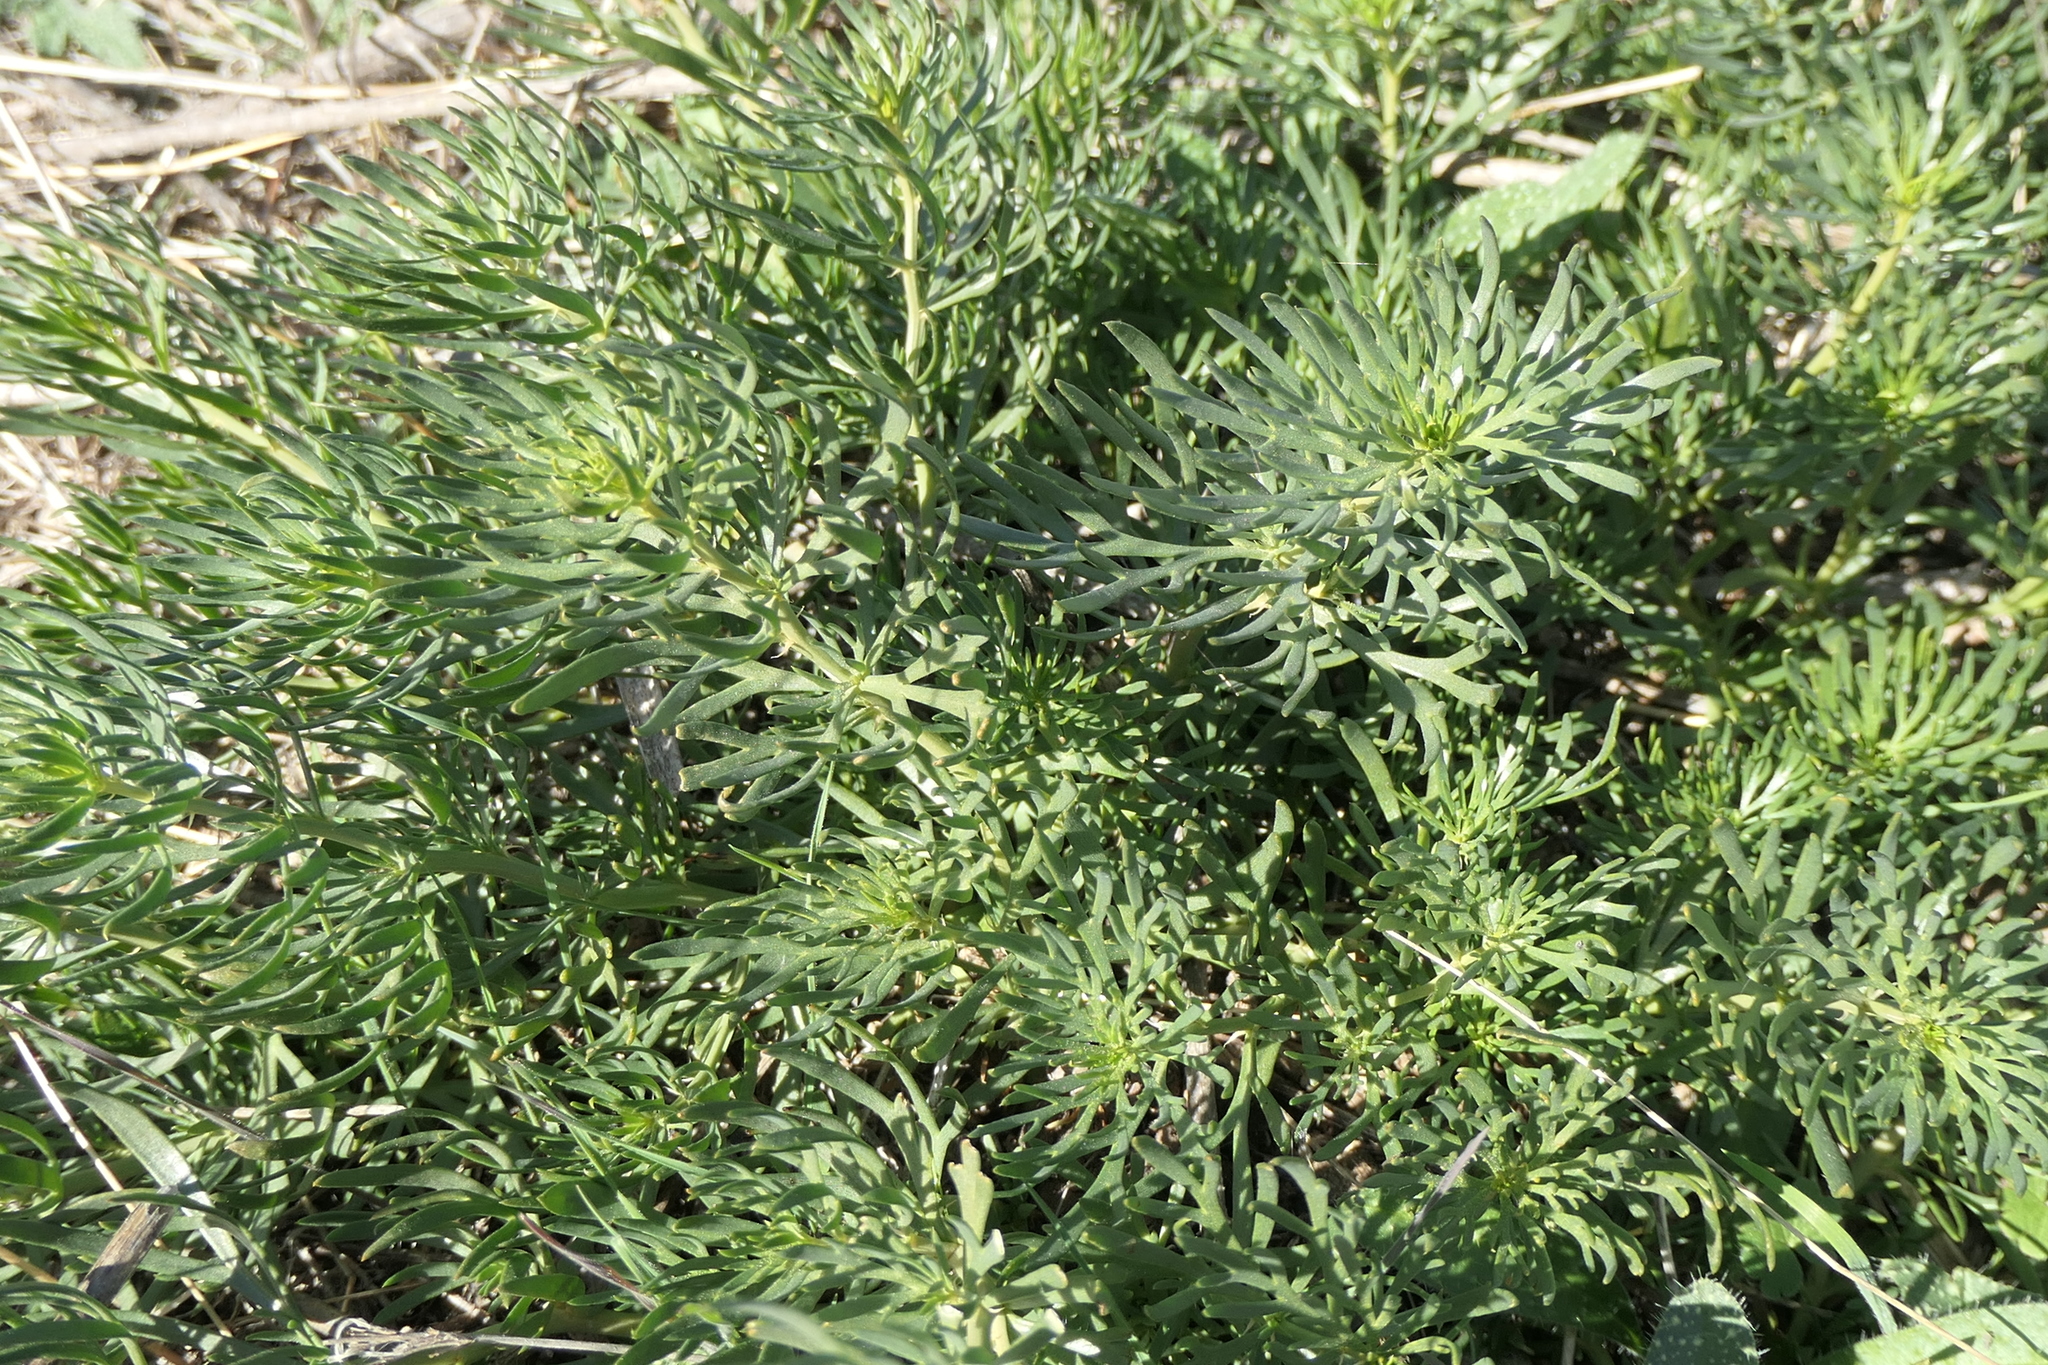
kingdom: Plantae
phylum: Tracheophyta
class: Magnoliopsida
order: Sapindales
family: Tetradiclidaceae
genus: Peganum
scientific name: Peganum harmala
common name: Harmal peganum
